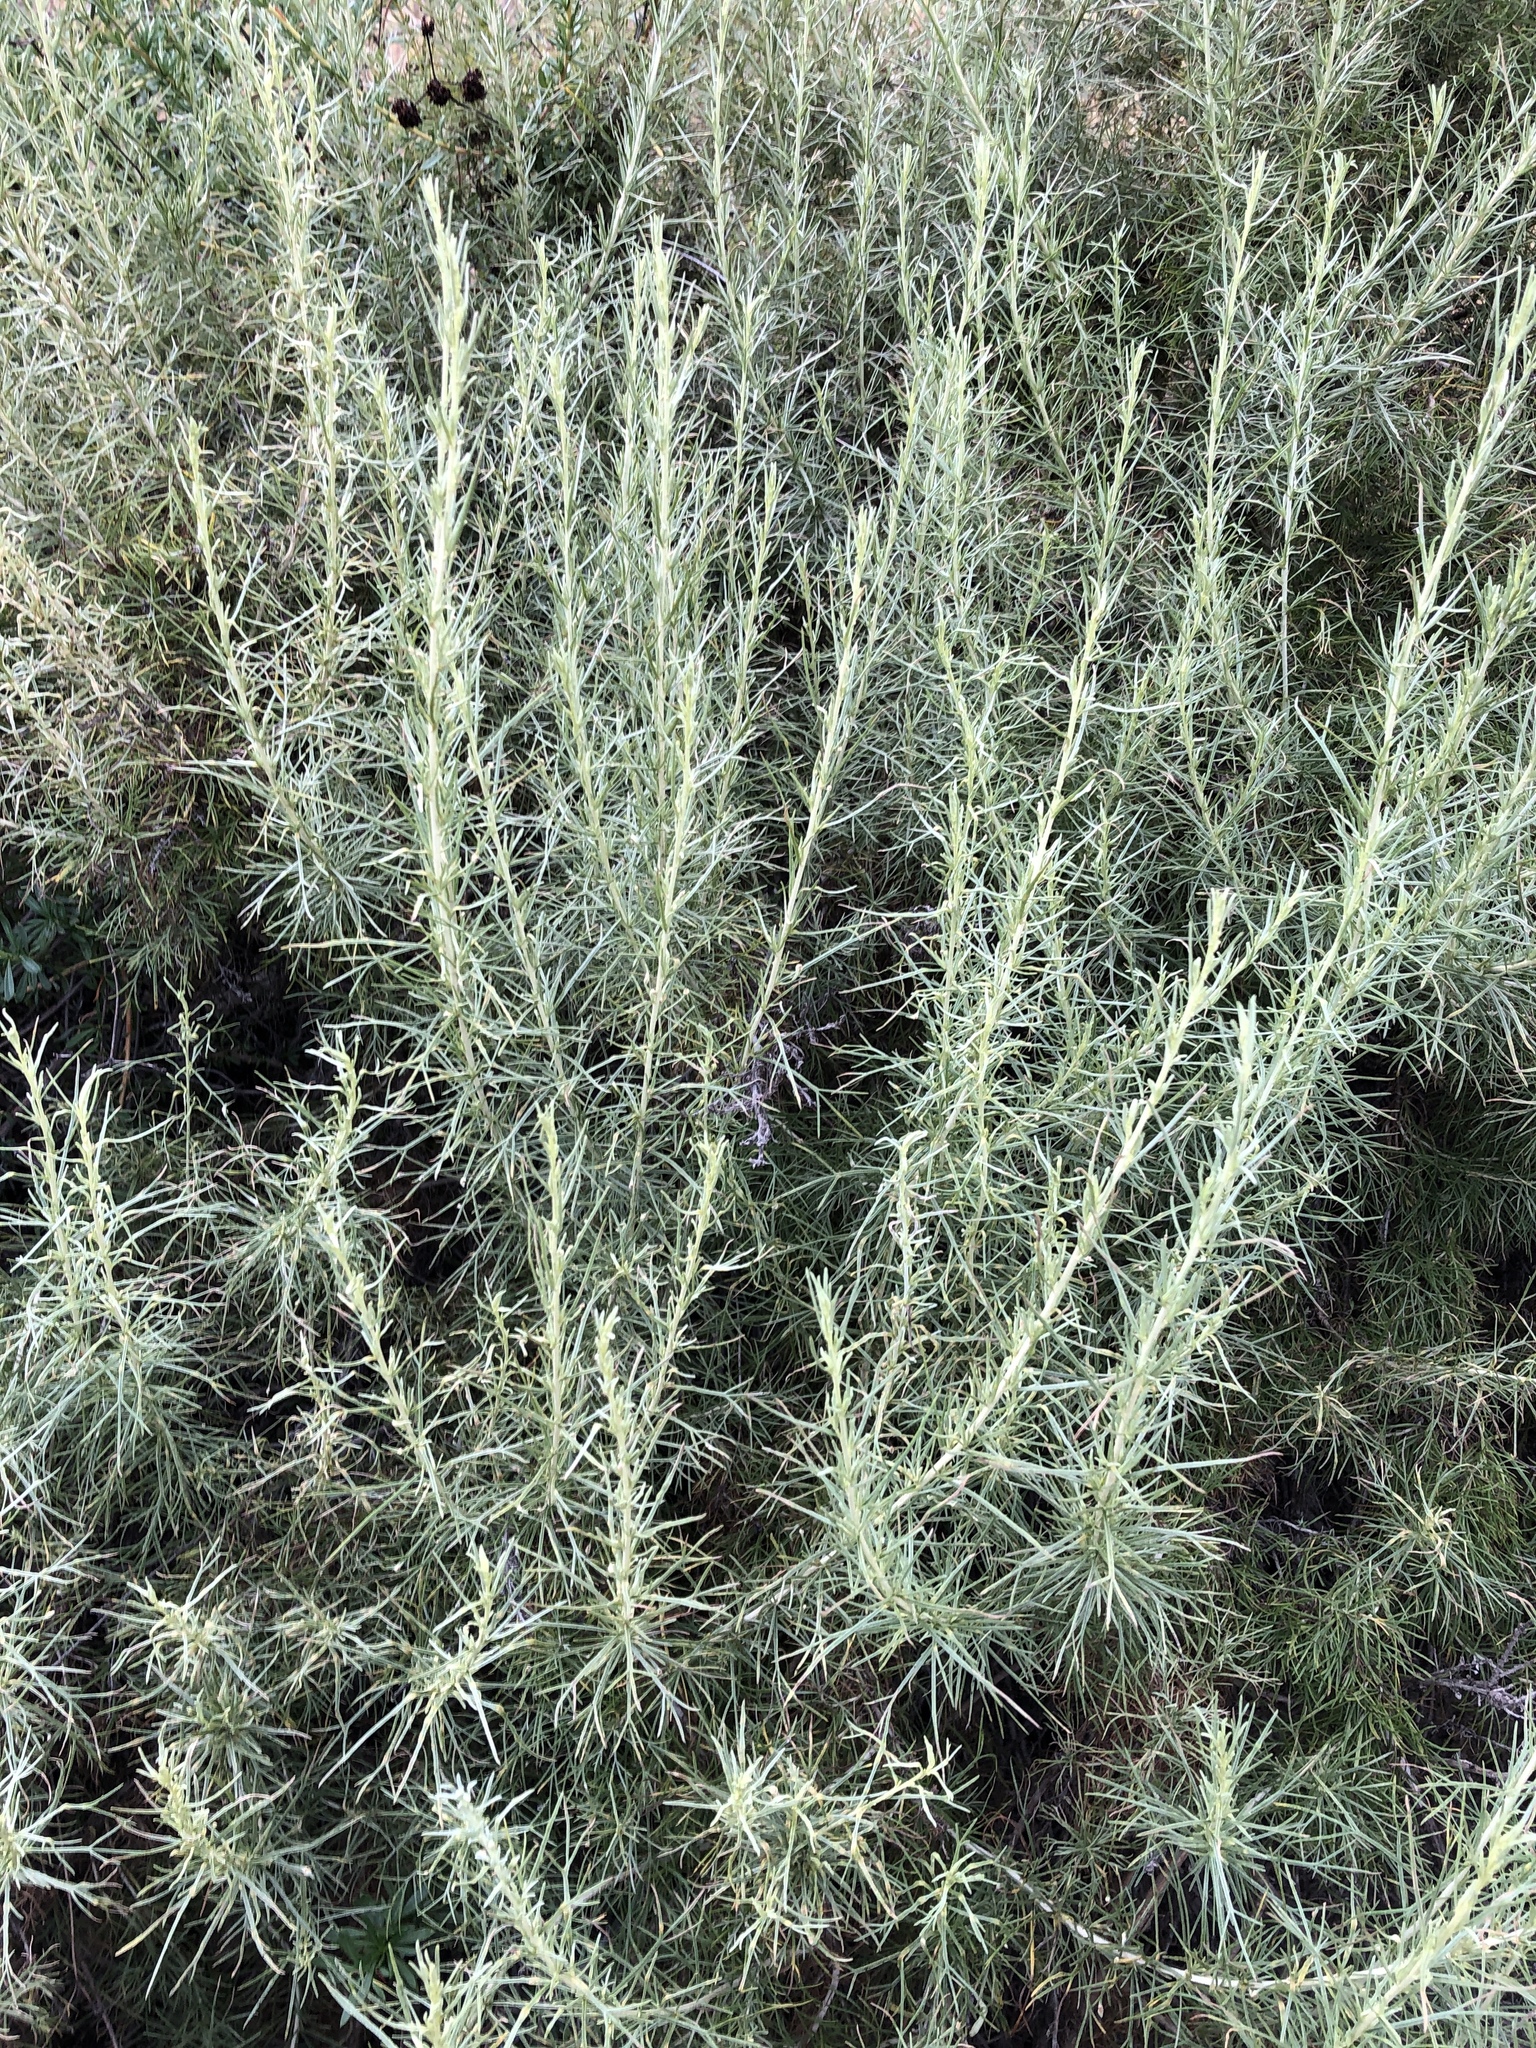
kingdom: Plantae
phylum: Tracheophyta
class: Magnoliopsida
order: Asterales
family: Asteraceae
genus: Artemisia
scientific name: Artemisia californica
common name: California sagebrush
